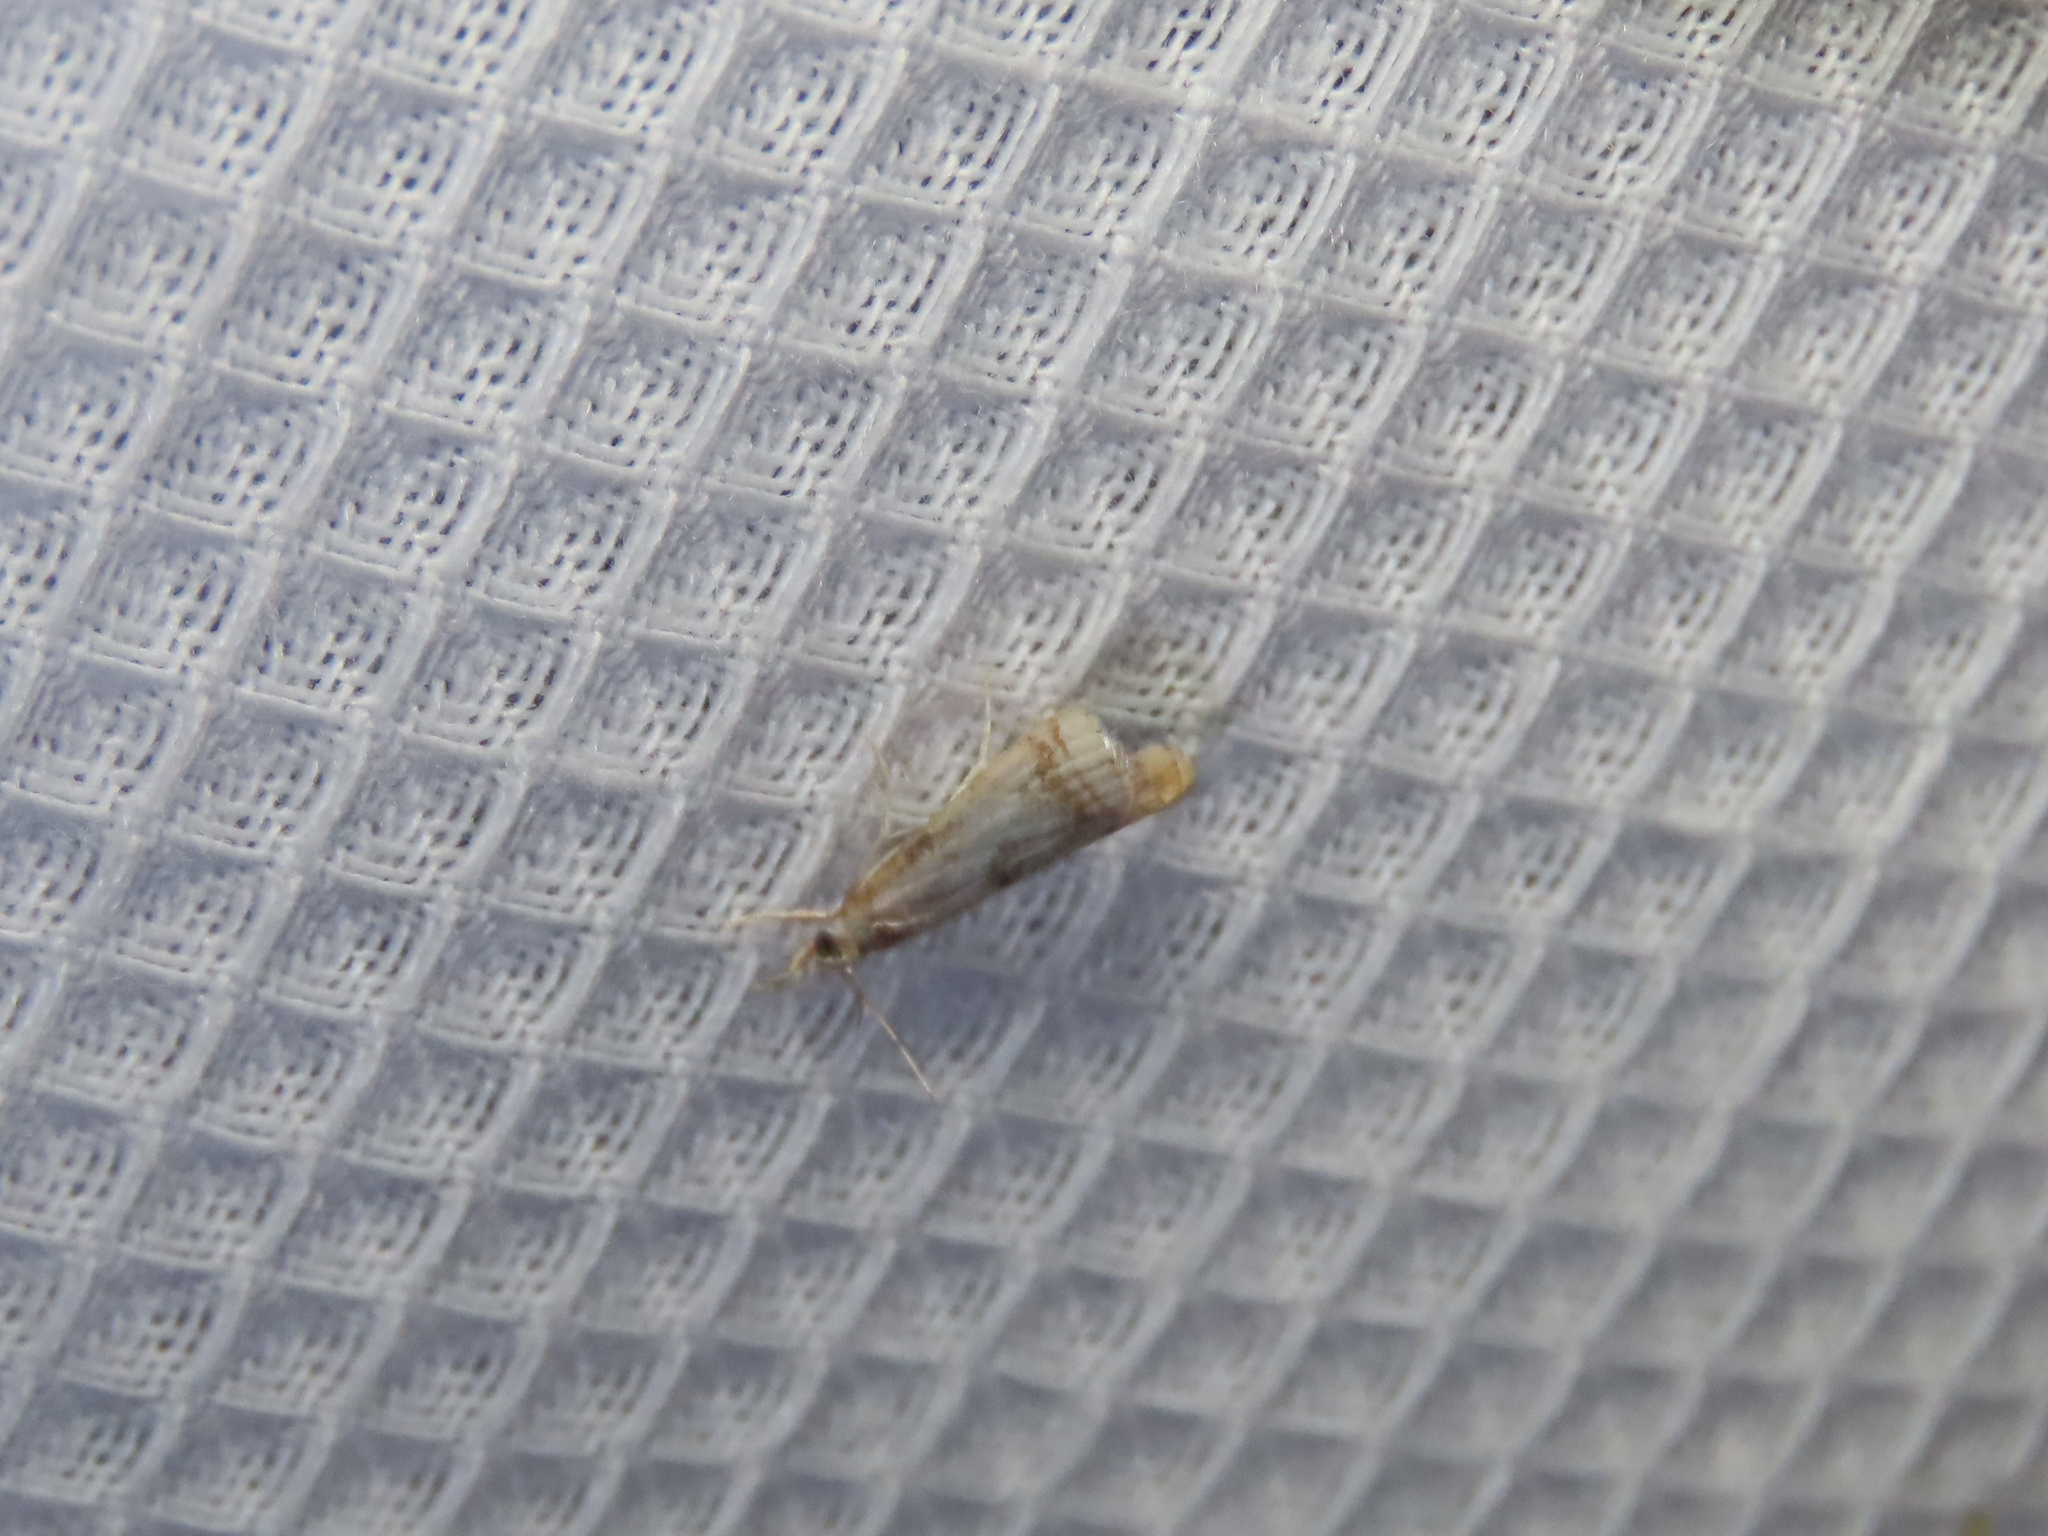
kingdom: Animalia
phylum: Arthropoda
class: Insecta
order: Lepidoptera
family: Crambidae
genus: Microcrambus
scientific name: Microcrambus elegans
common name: Elegant grass-veneer
